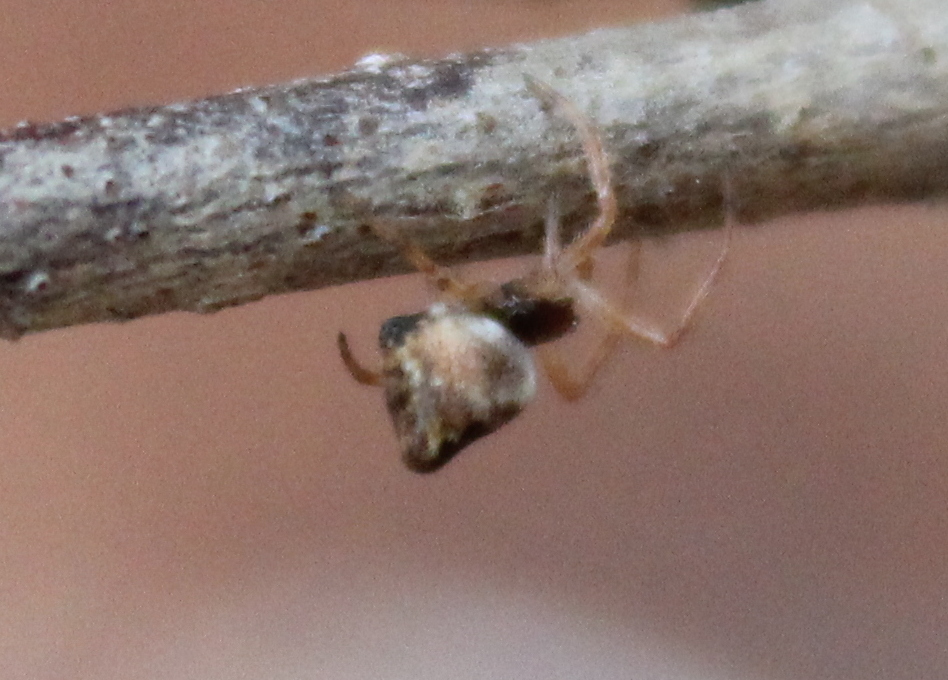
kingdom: Animalia
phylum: Arthropoda
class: Arachnida
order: Araneae
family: Araneidae
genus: Cyclosa
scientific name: Cyclosa conica
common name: Conical trashline orbweaver
